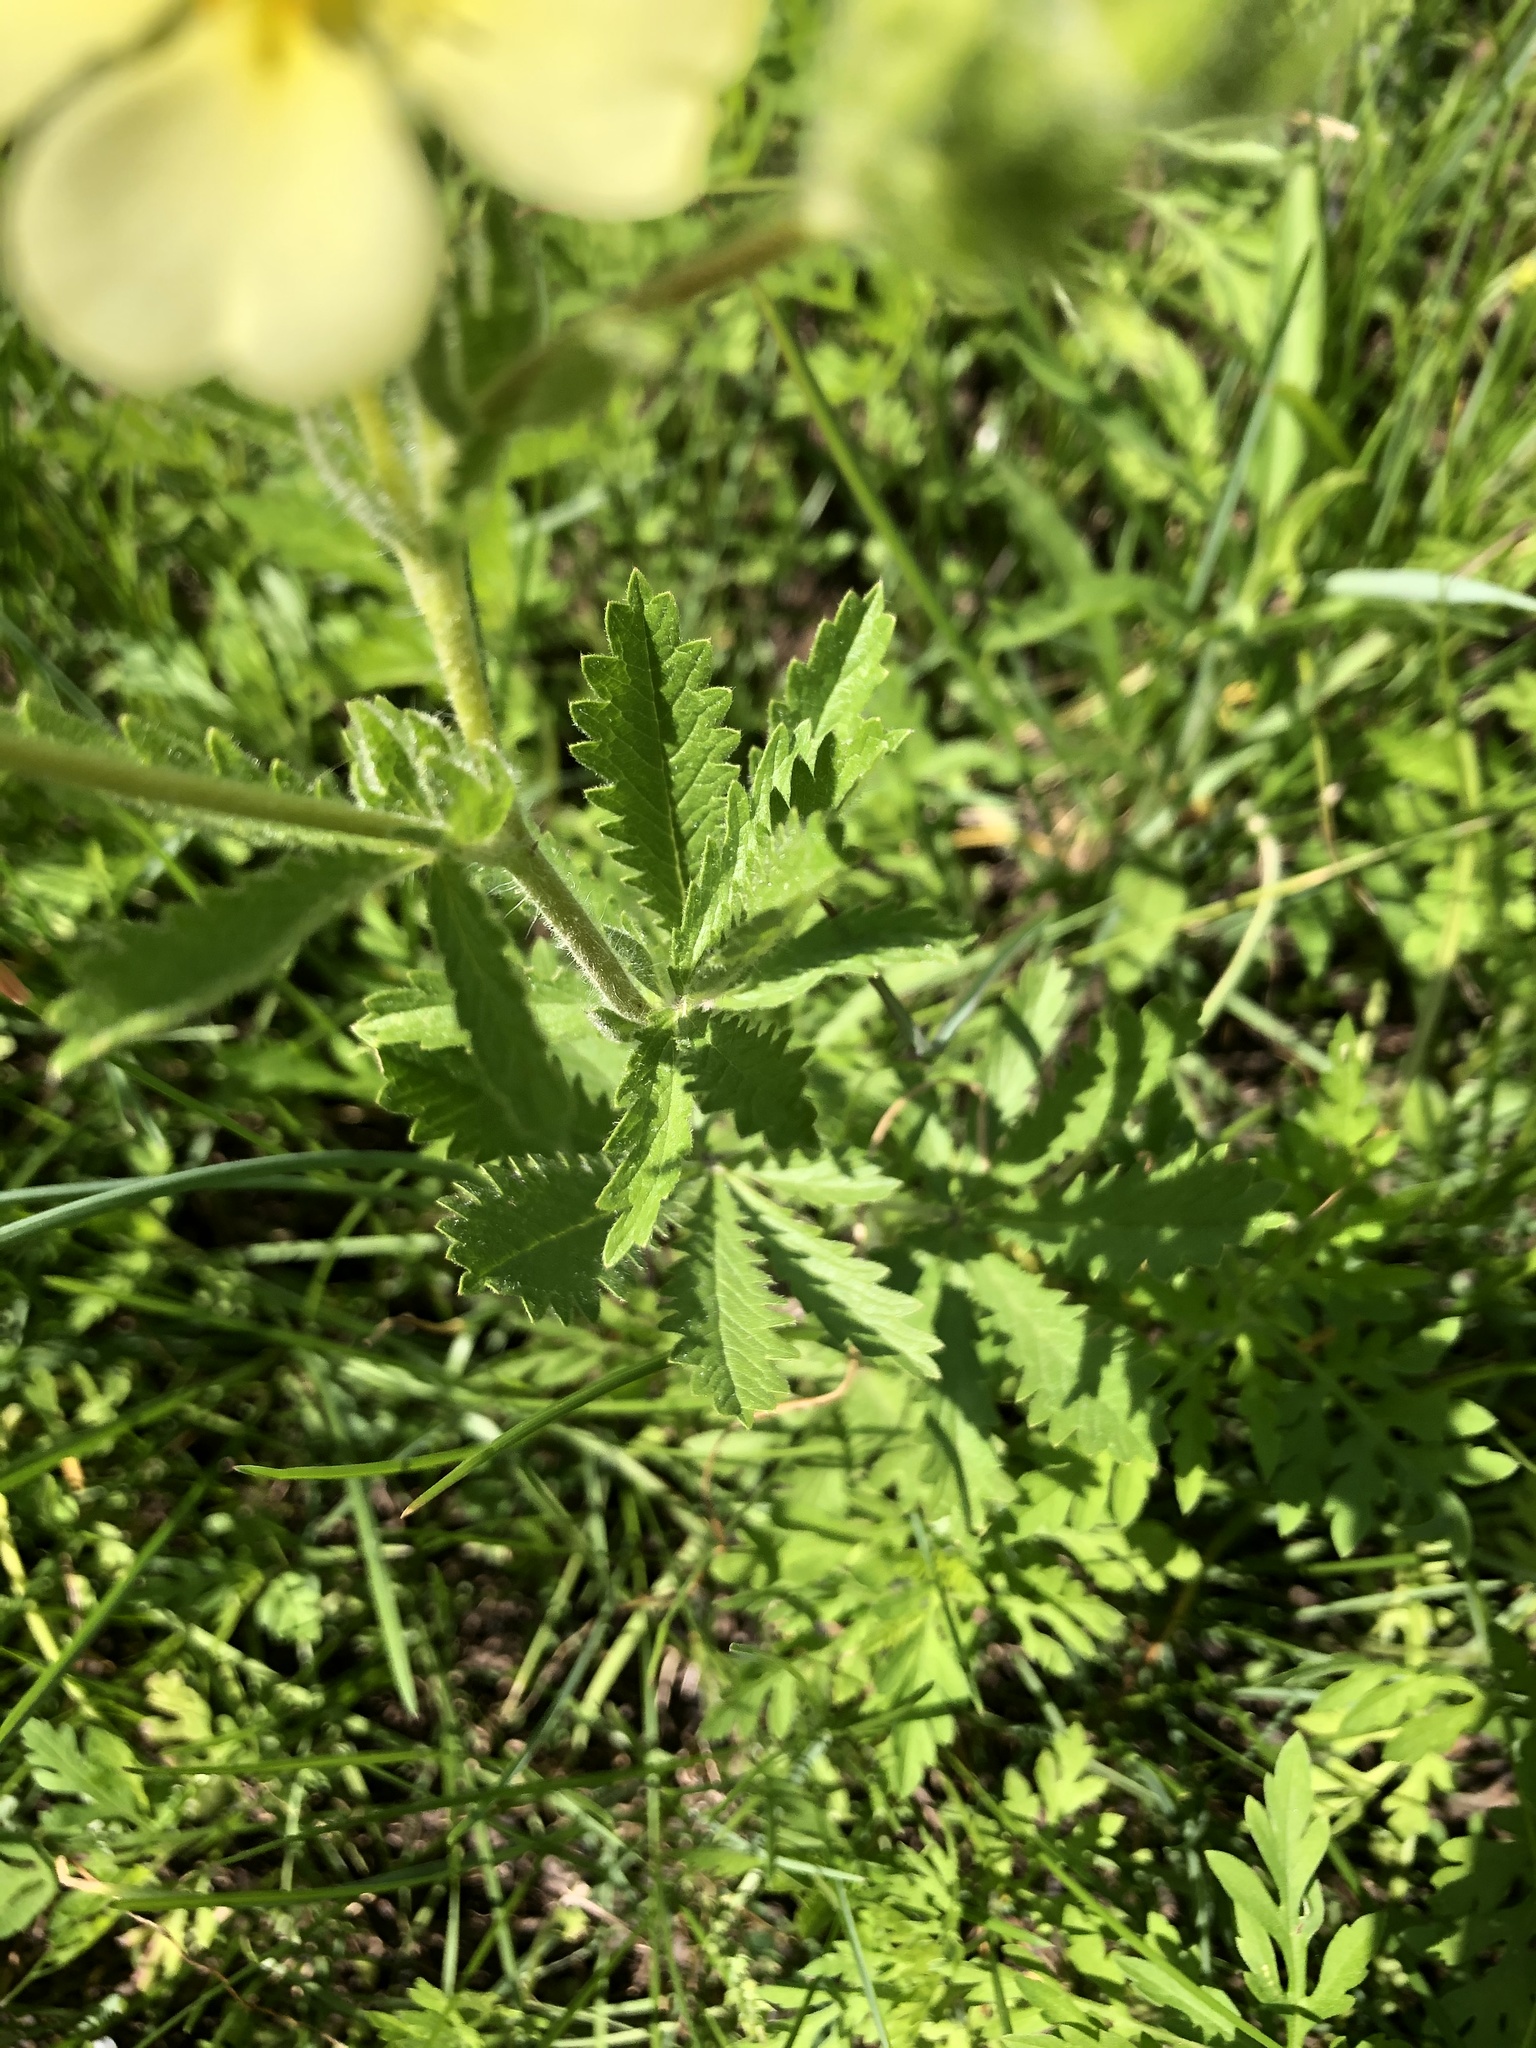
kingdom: Plantae
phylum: Tracheophyta
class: Magnoliopsida
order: Rosales
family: Rosaceae
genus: Potentilla
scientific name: Potentilla recta
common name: Sulphur cinquefoil
